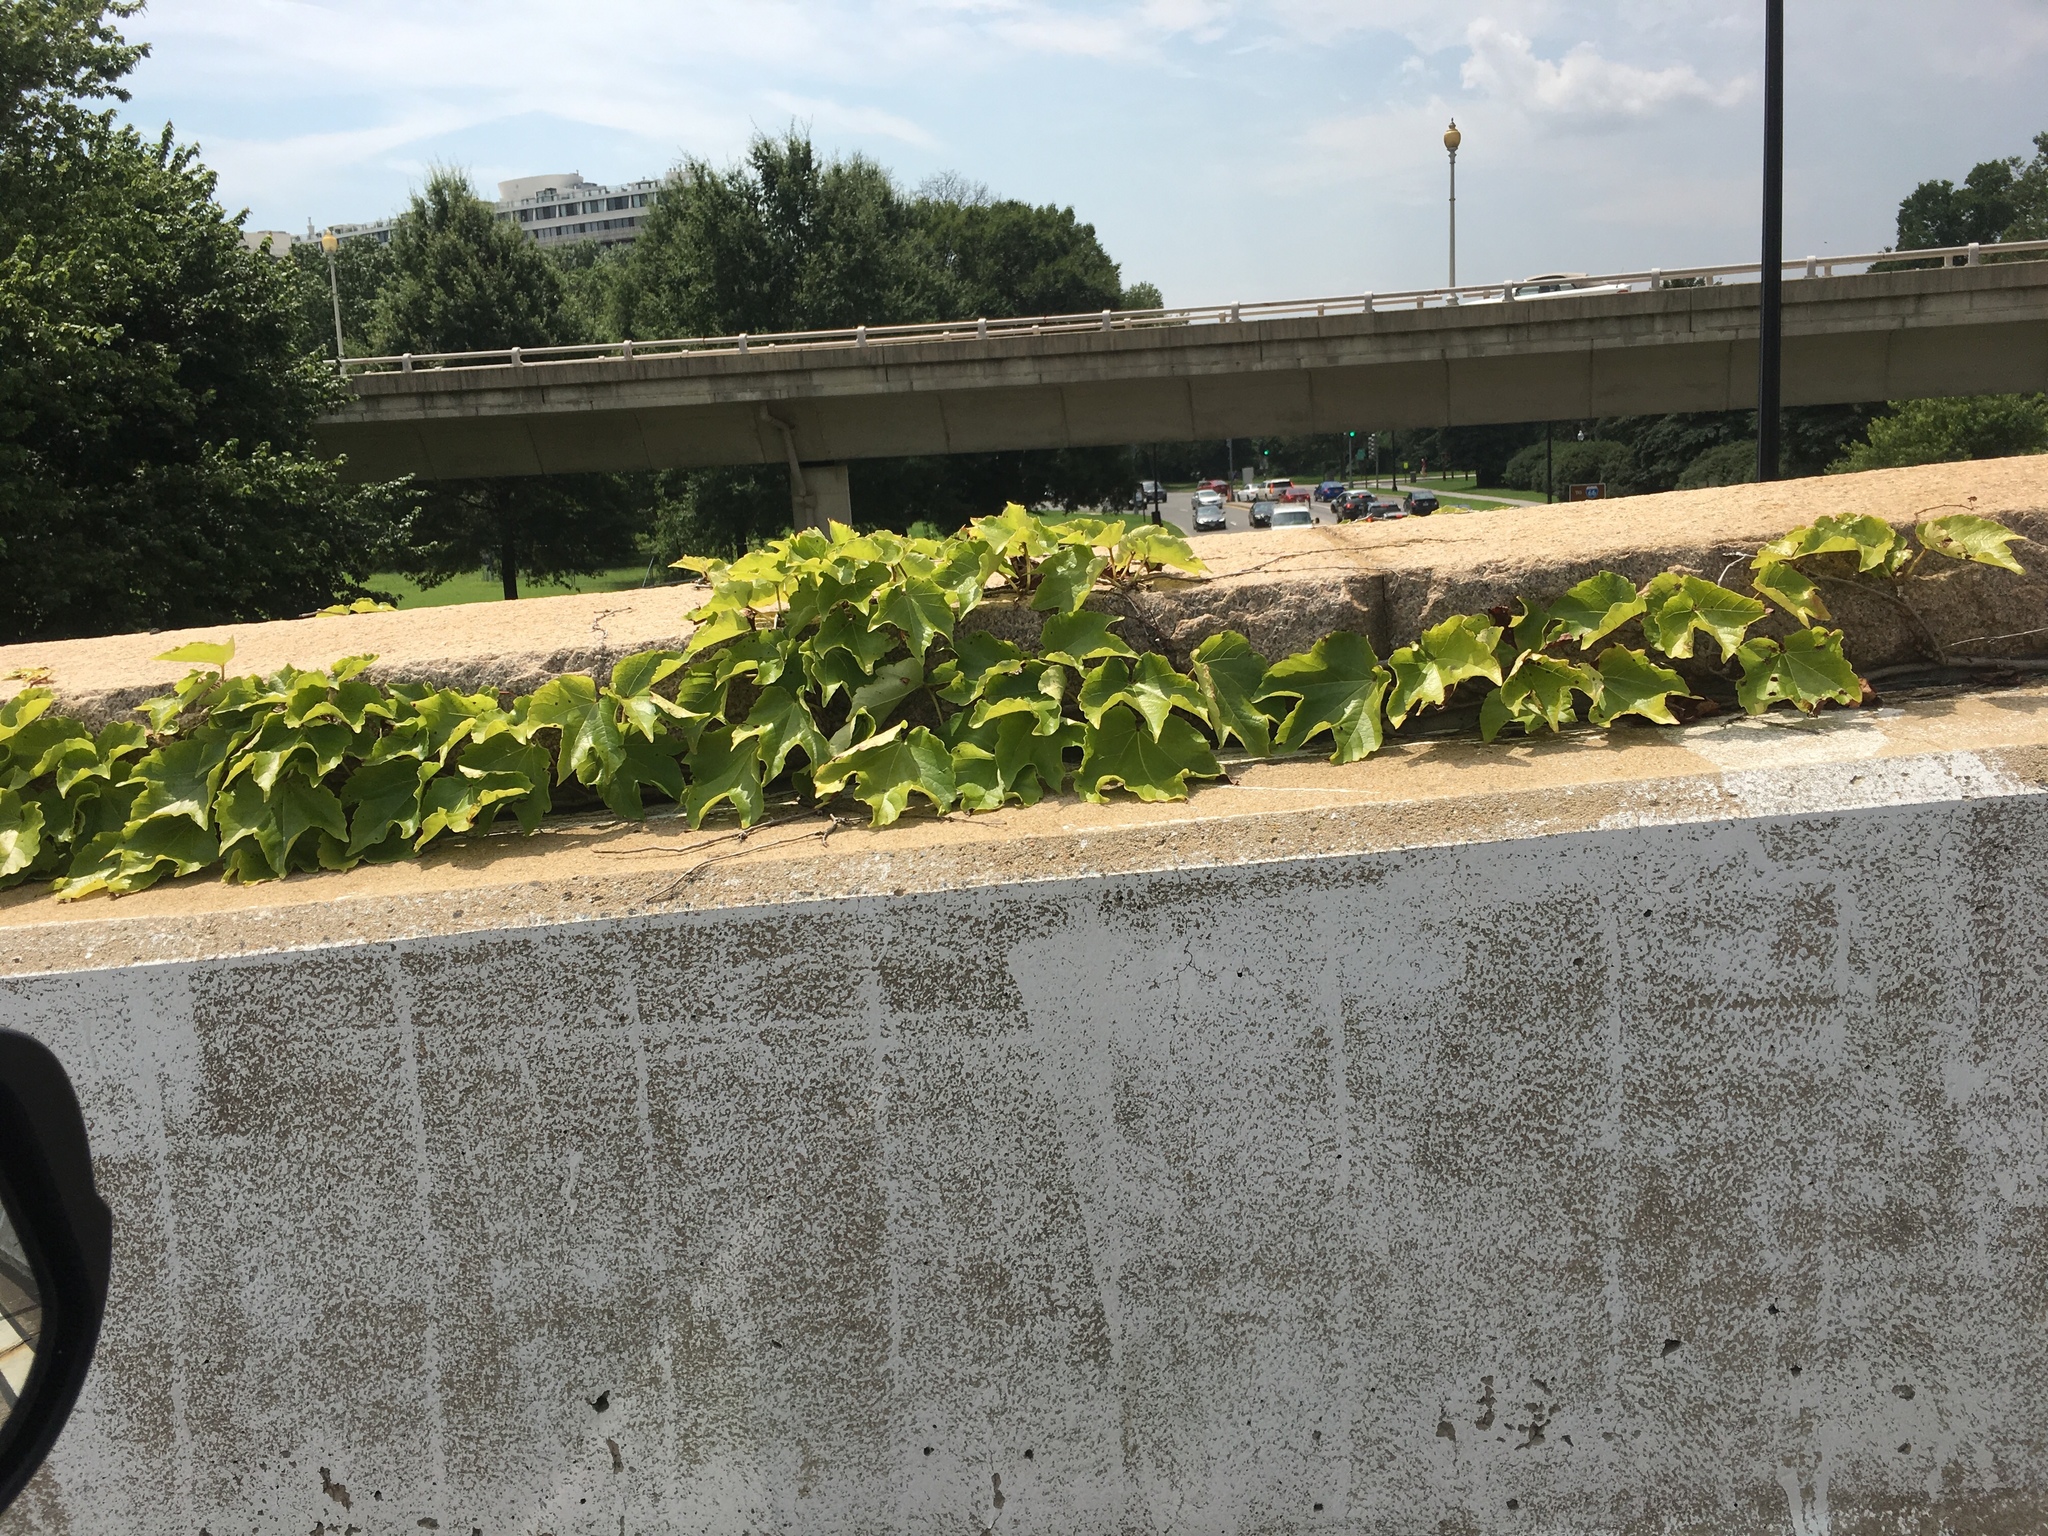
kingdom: Plantae
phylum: Tracheophyta
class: Magnoliopsida
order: Vitales
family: Vitaceae
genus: Parthenocissus
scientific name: Parthenocissus tricuspidata
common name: Boston ivy
